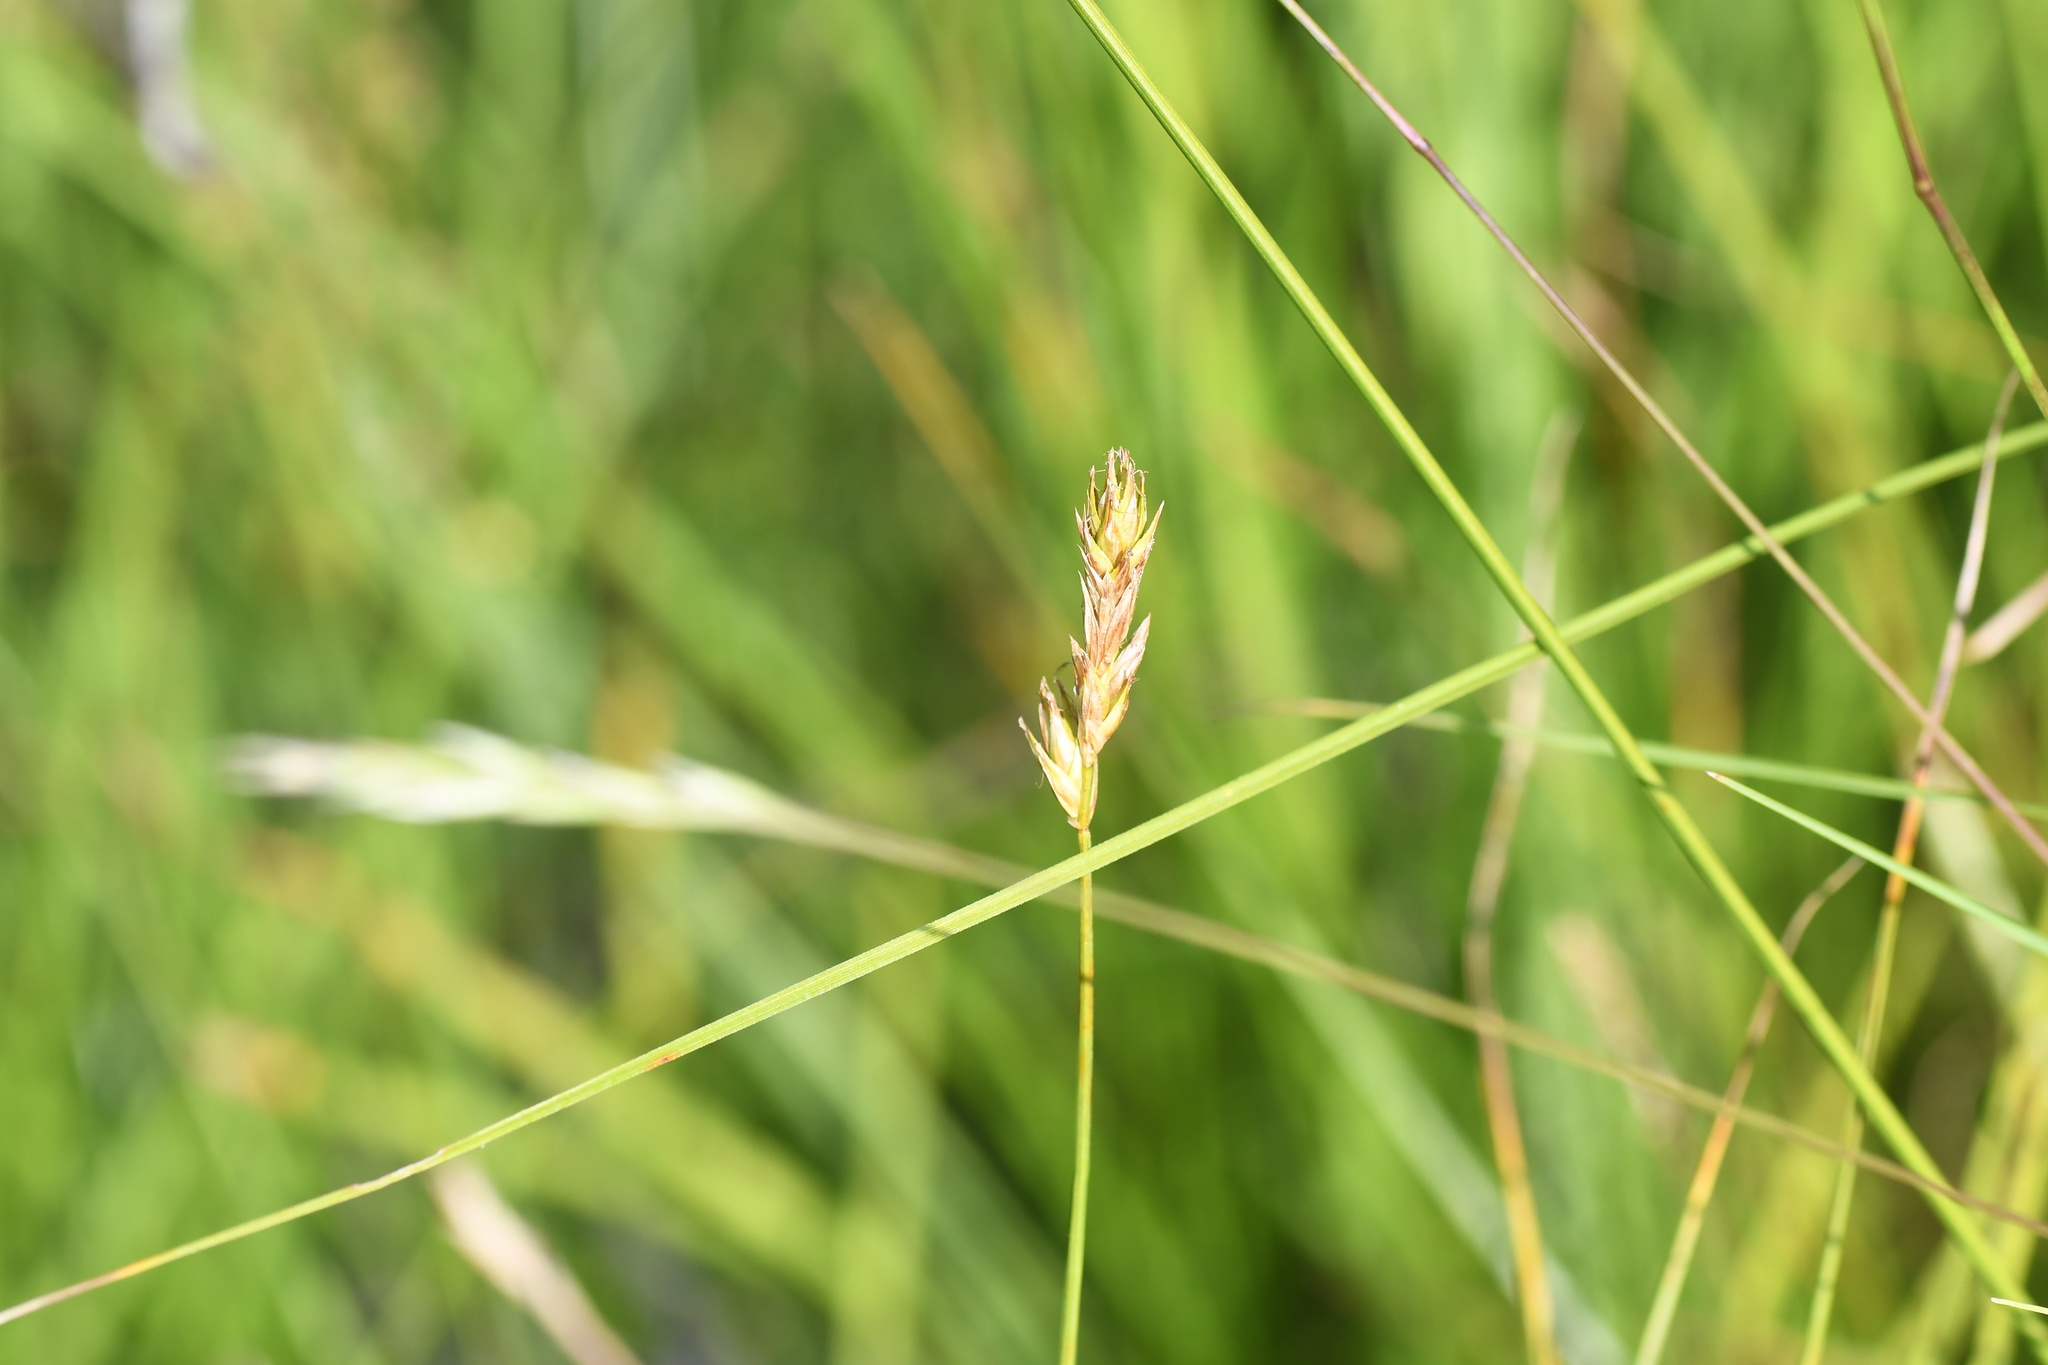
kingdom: Plantae
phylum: Tracheophyta
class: Liliopsida
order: Poales
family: Cyperaceae
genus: Carex
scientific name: Carex siccata
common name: Dry sedge
